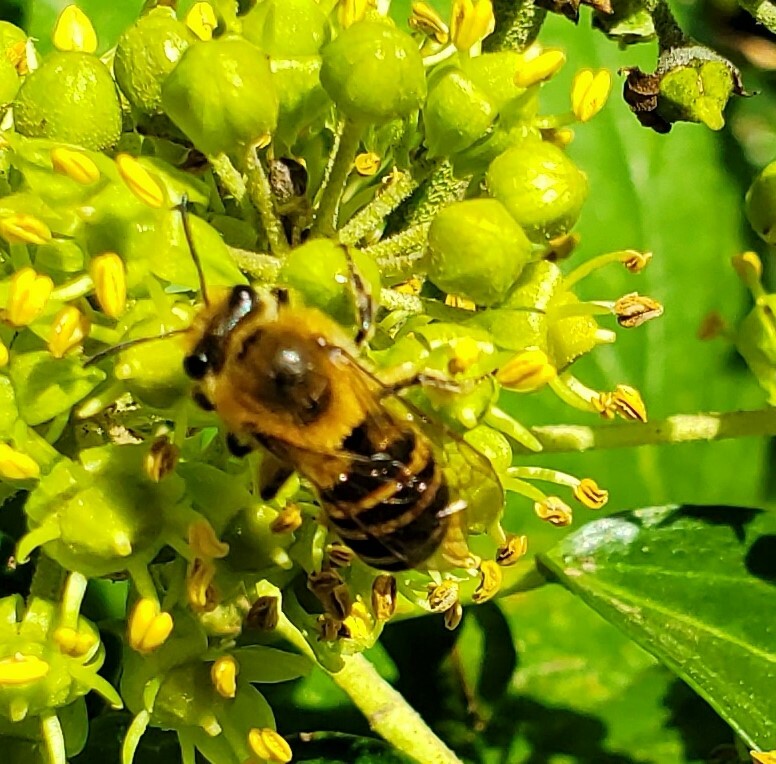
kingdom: Animalia
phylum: Arthropoda
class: Insecta
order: Hymenoptera
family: Colletidae
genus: Colletes
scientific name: Colletes hederae
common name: Ivy bee
